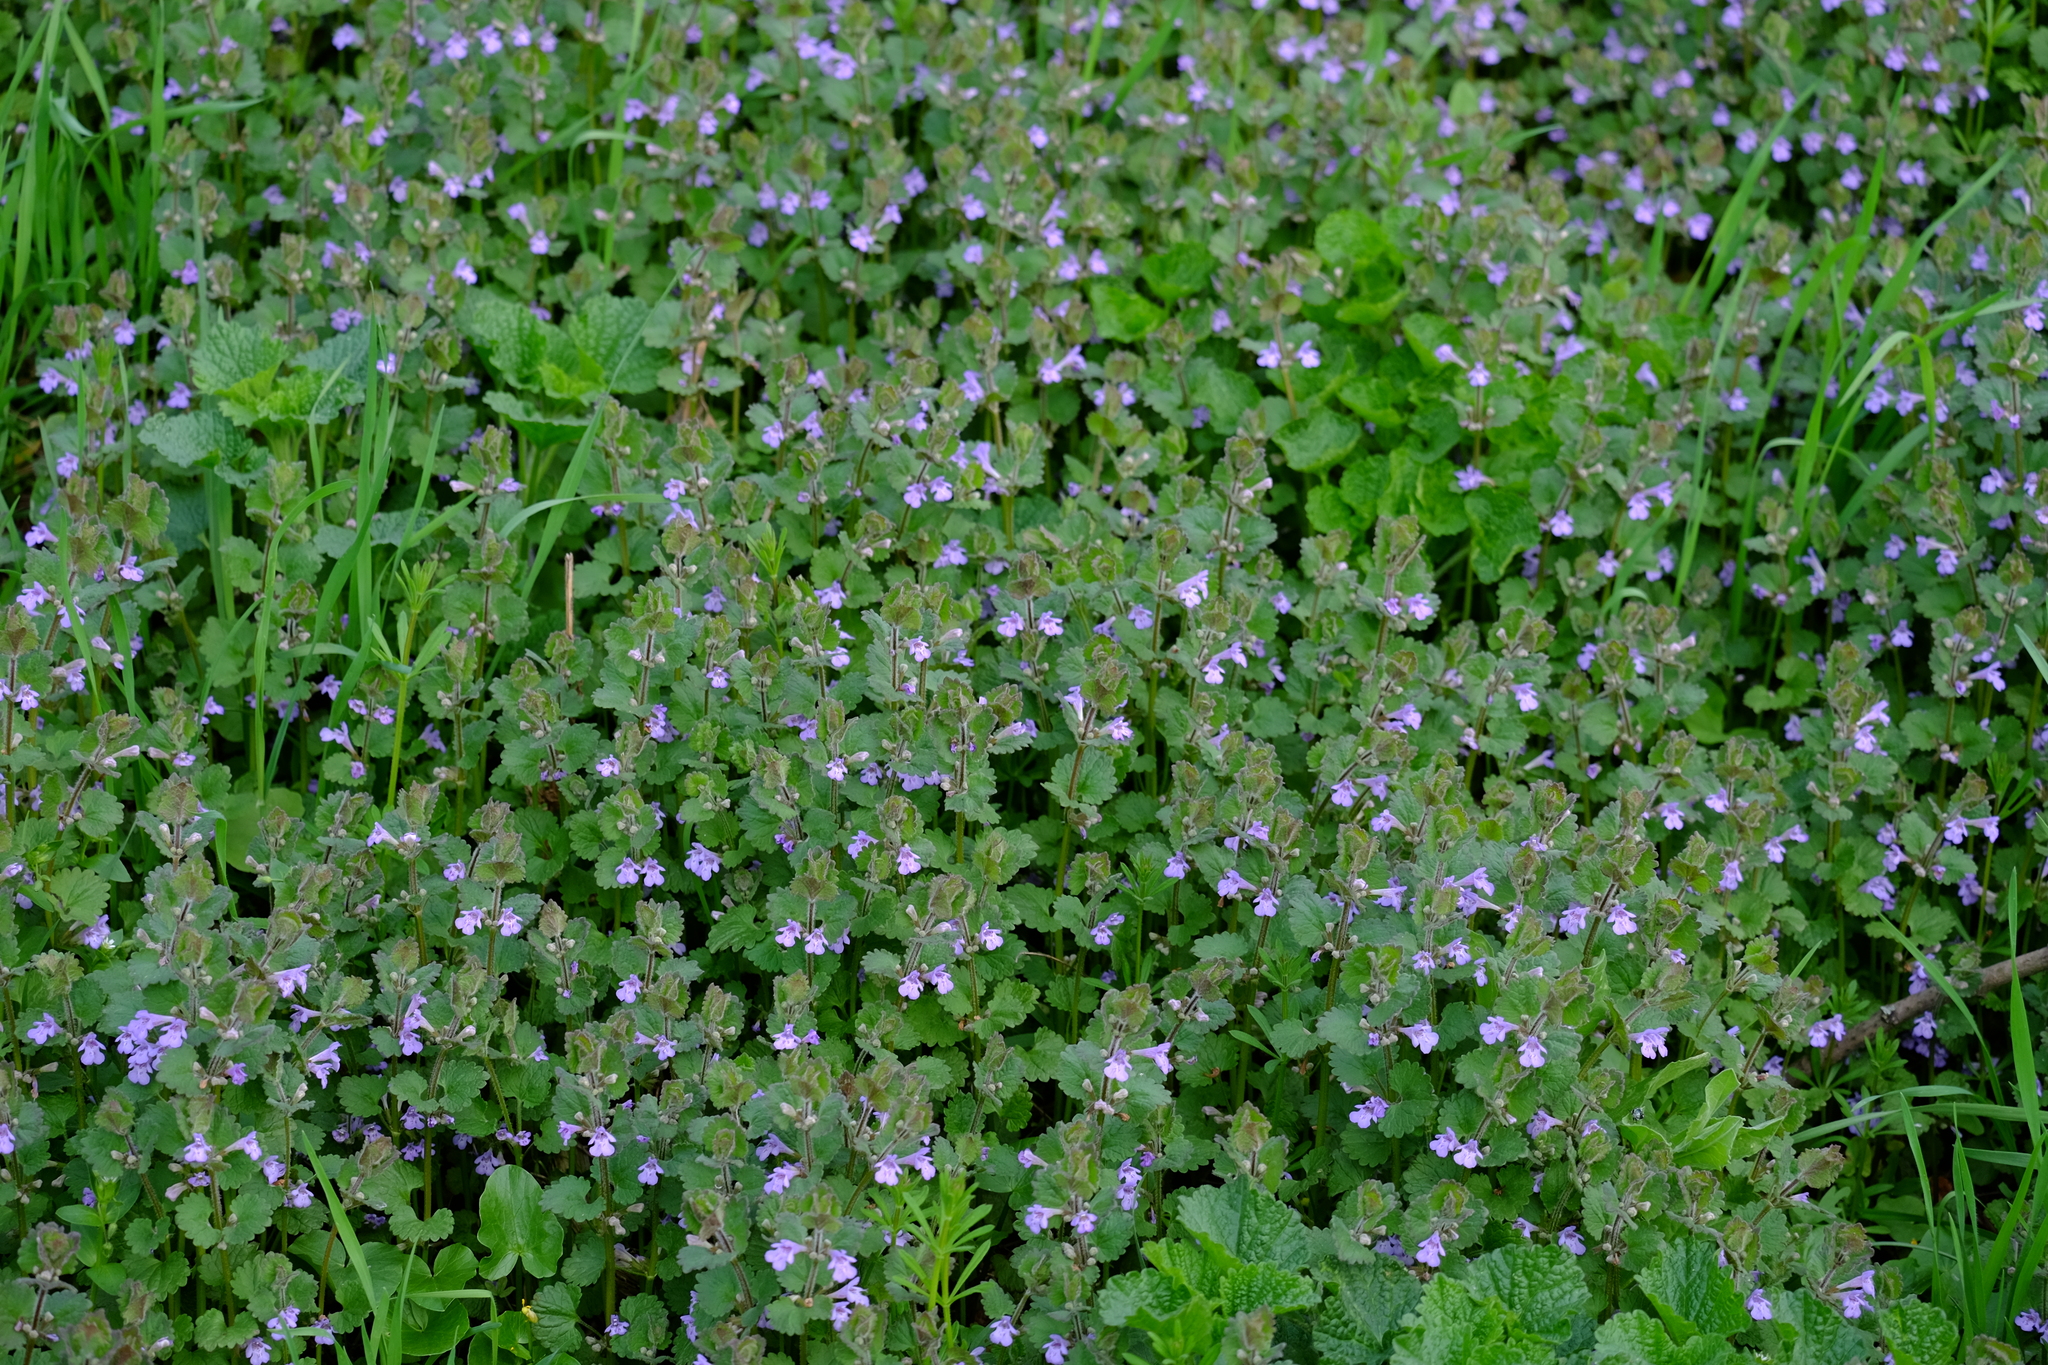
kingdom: Plantae
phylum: Tracheophyta
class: Magnoliopsida
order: Lamiales
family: Lamiaceae
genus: Glechoma
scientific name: Glechoma hederacea
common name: Ground ivy
